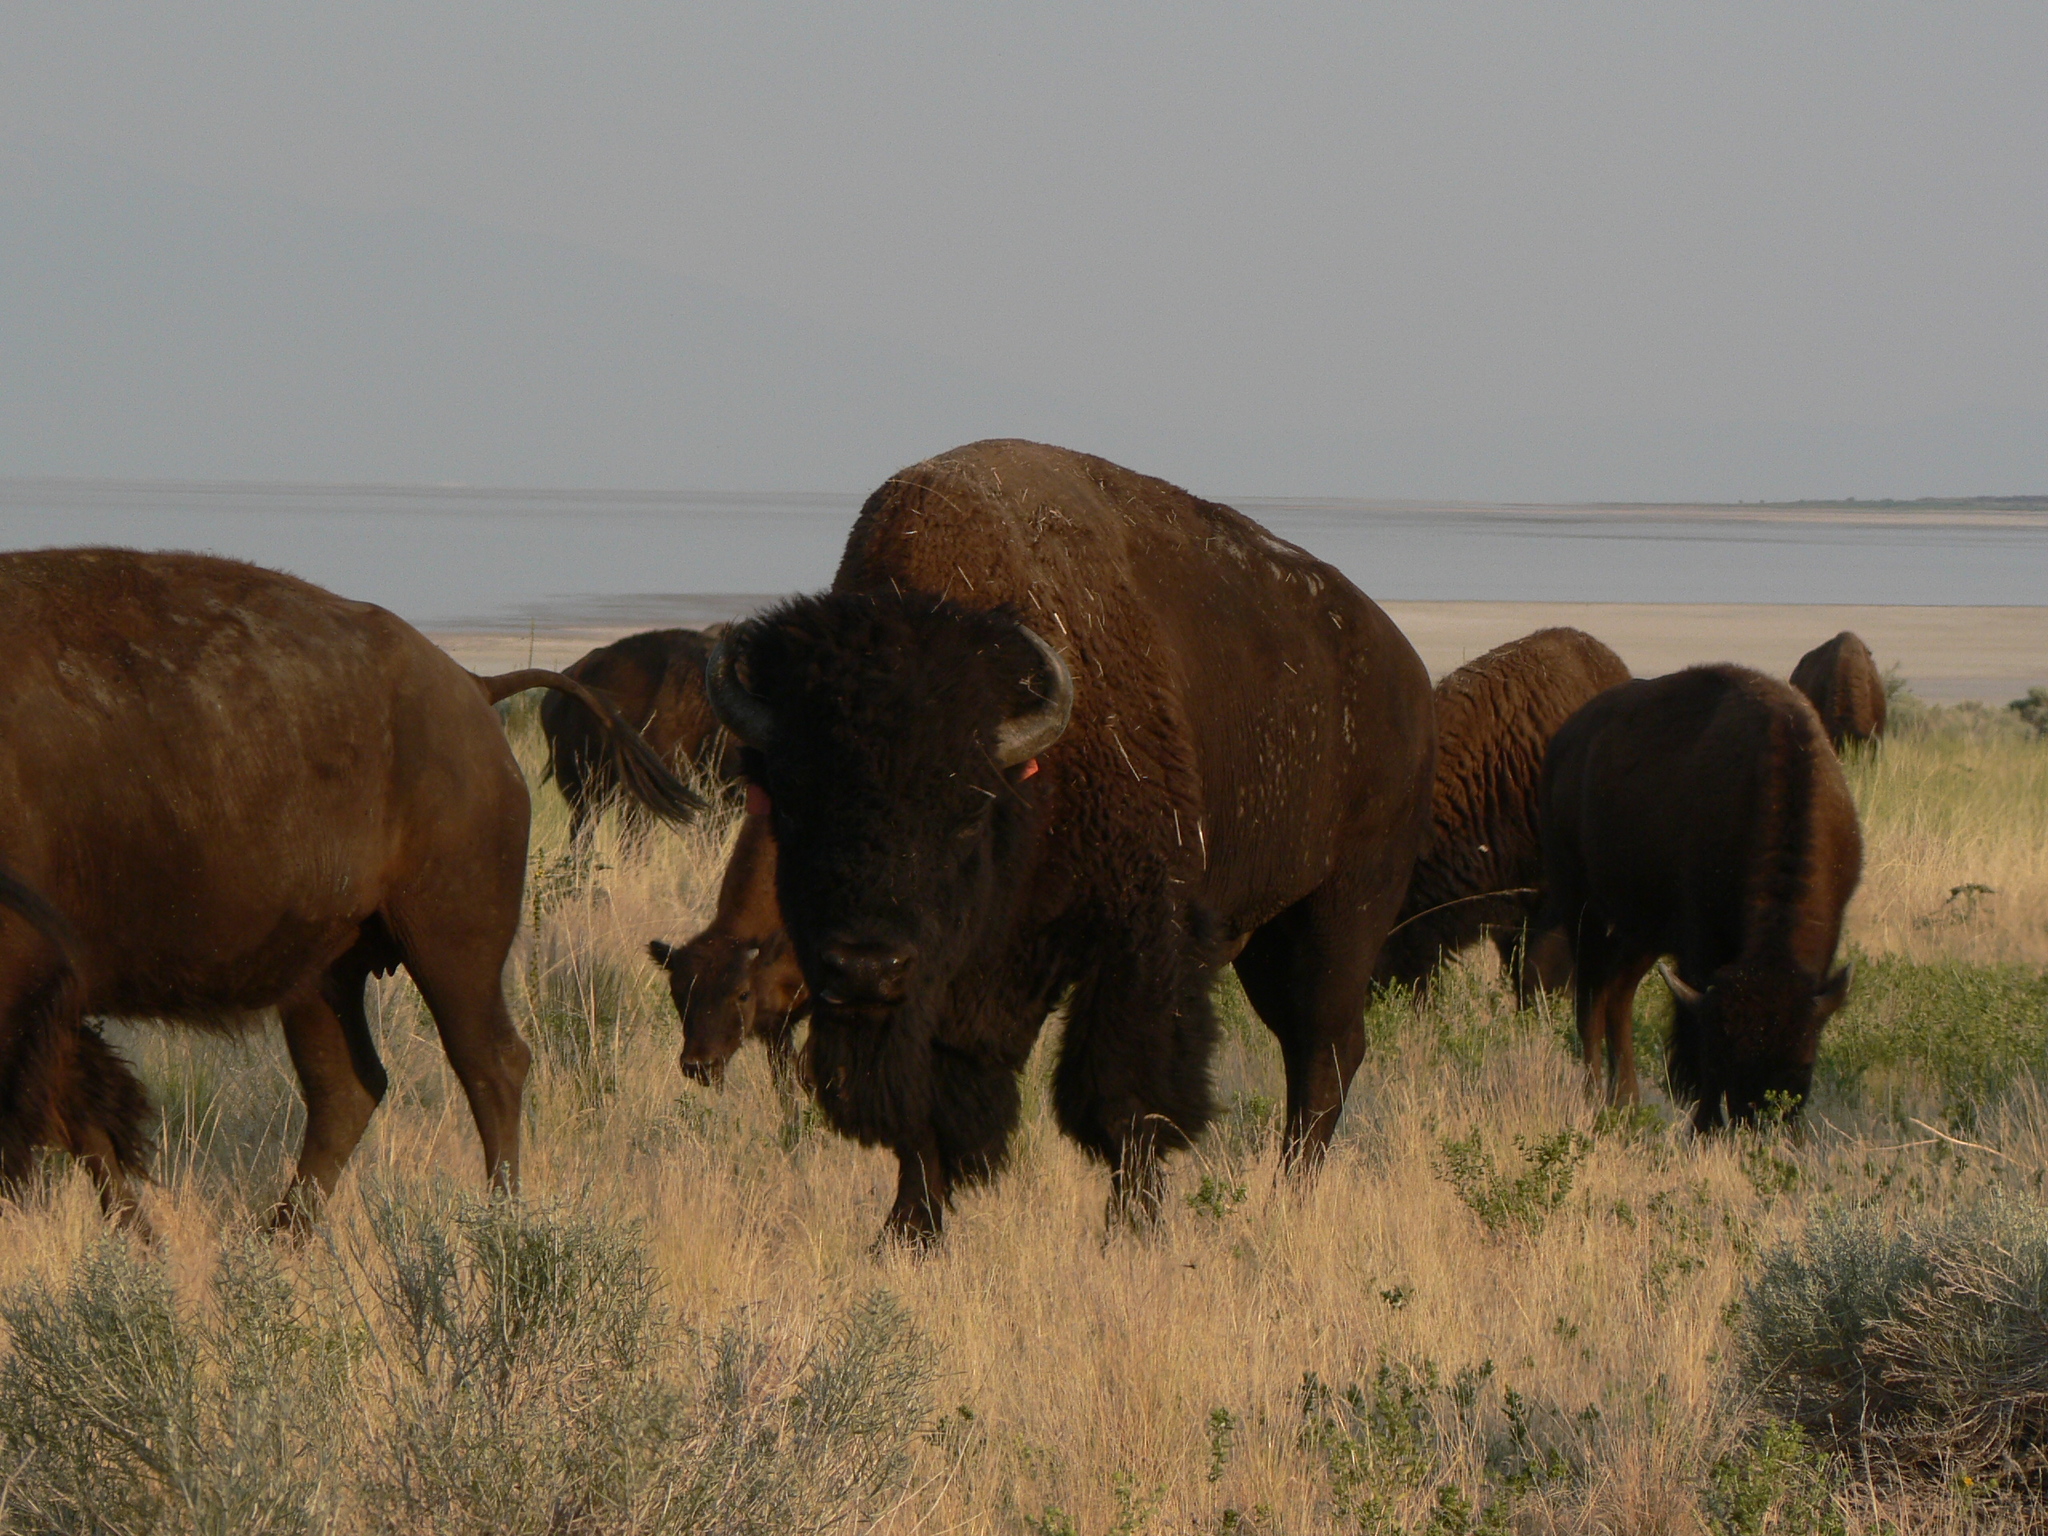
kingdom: Animalia
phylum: Chordata
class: Mammalia
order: Artiodactyla
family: Bovidae
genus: Bison
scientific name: Bison bison
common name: American bison
